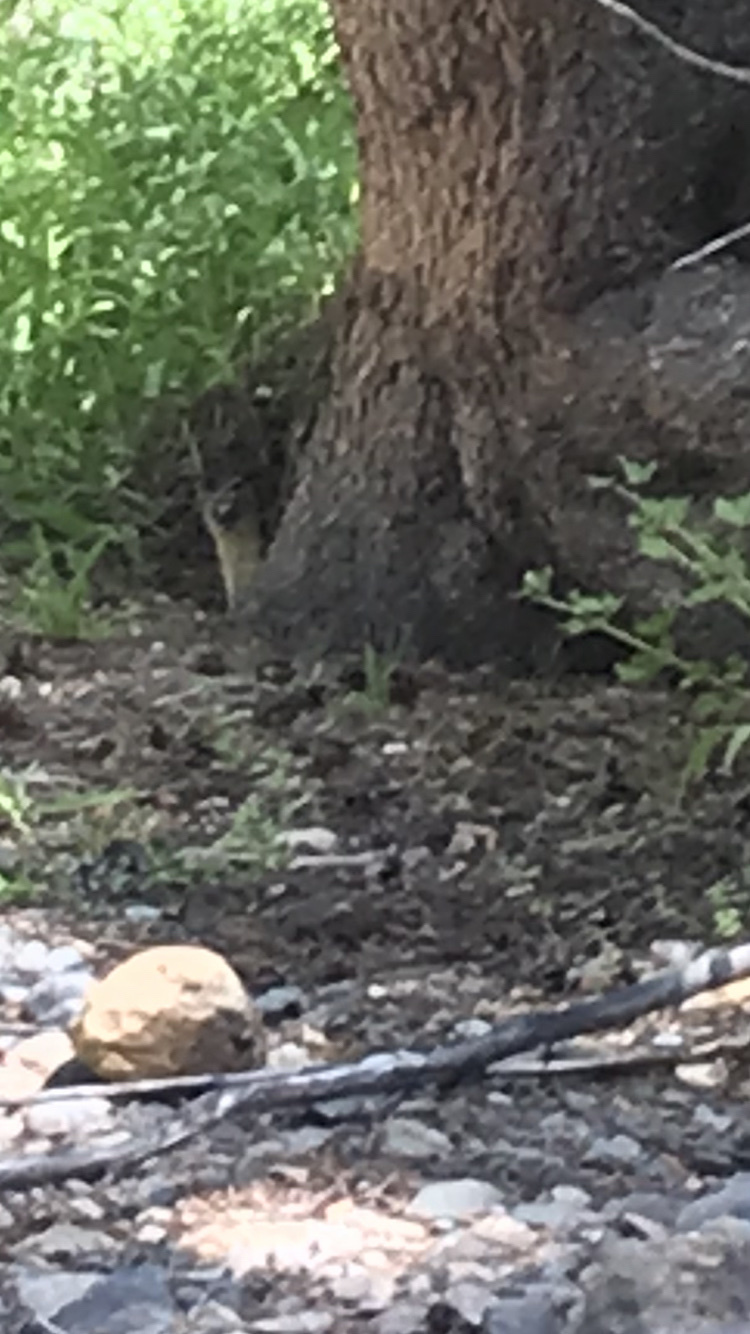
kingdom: Animalia
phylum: Chordata
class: Mammalia
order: Carnivora
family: Mustelidae
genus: Mustela
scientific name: Mustela
